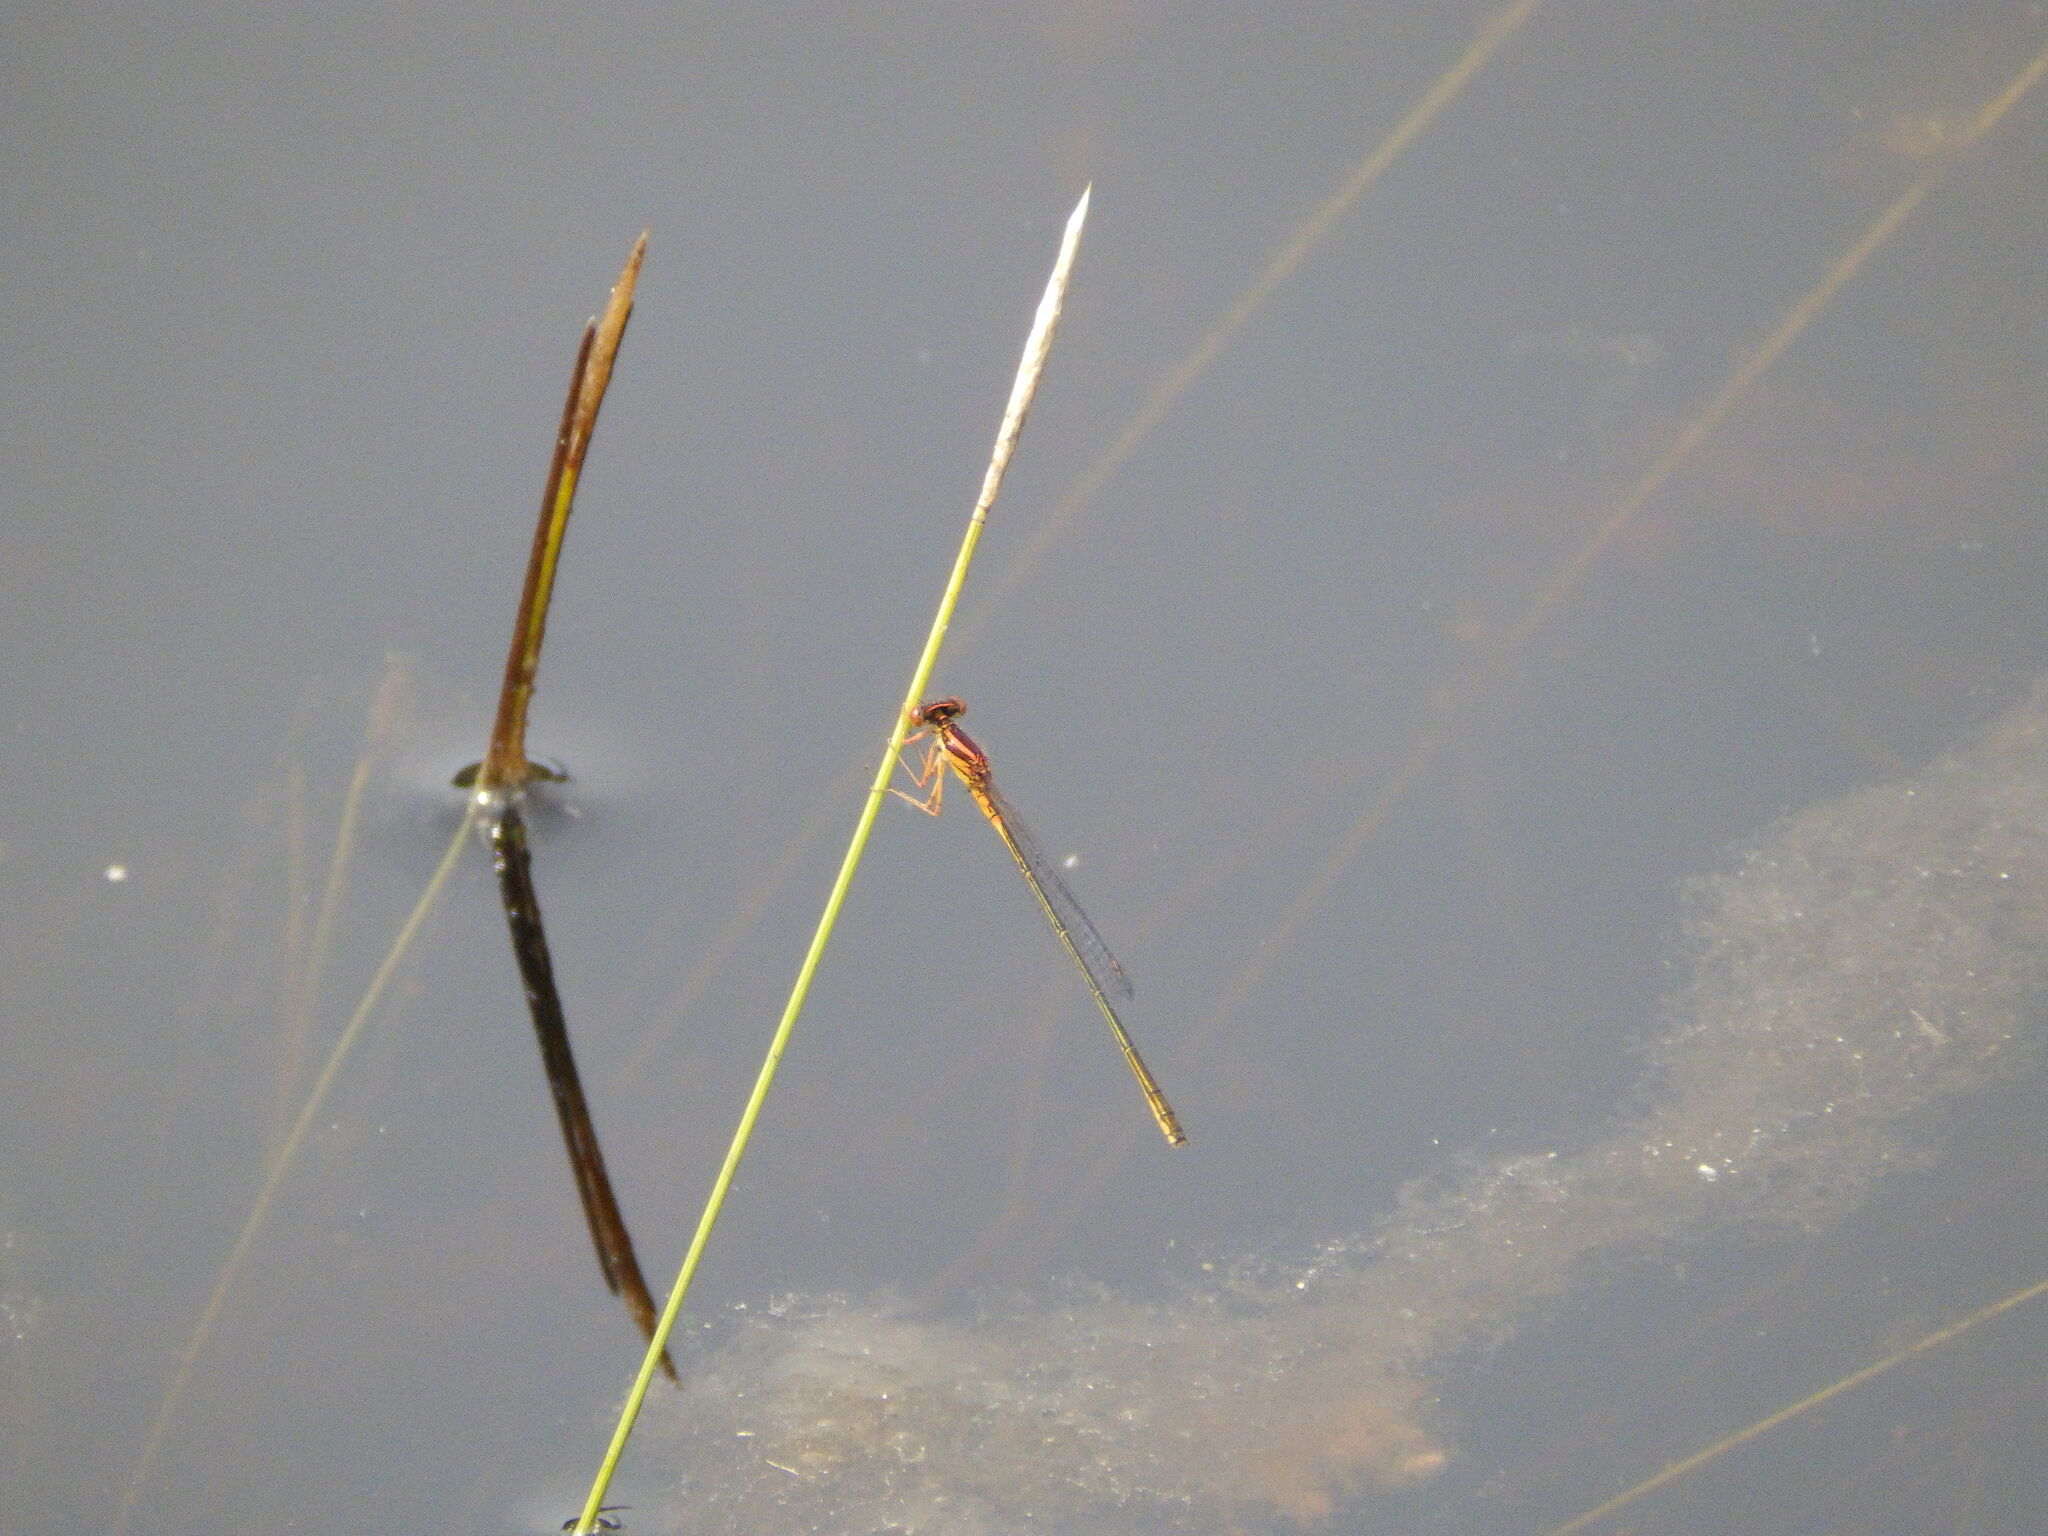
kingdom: Animalia
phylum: Arthropoda
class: Insecta
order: Odonata
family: Coenagrionidae
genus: Enallagma
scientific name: Enallagma pictum
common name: Scarlet bluet
